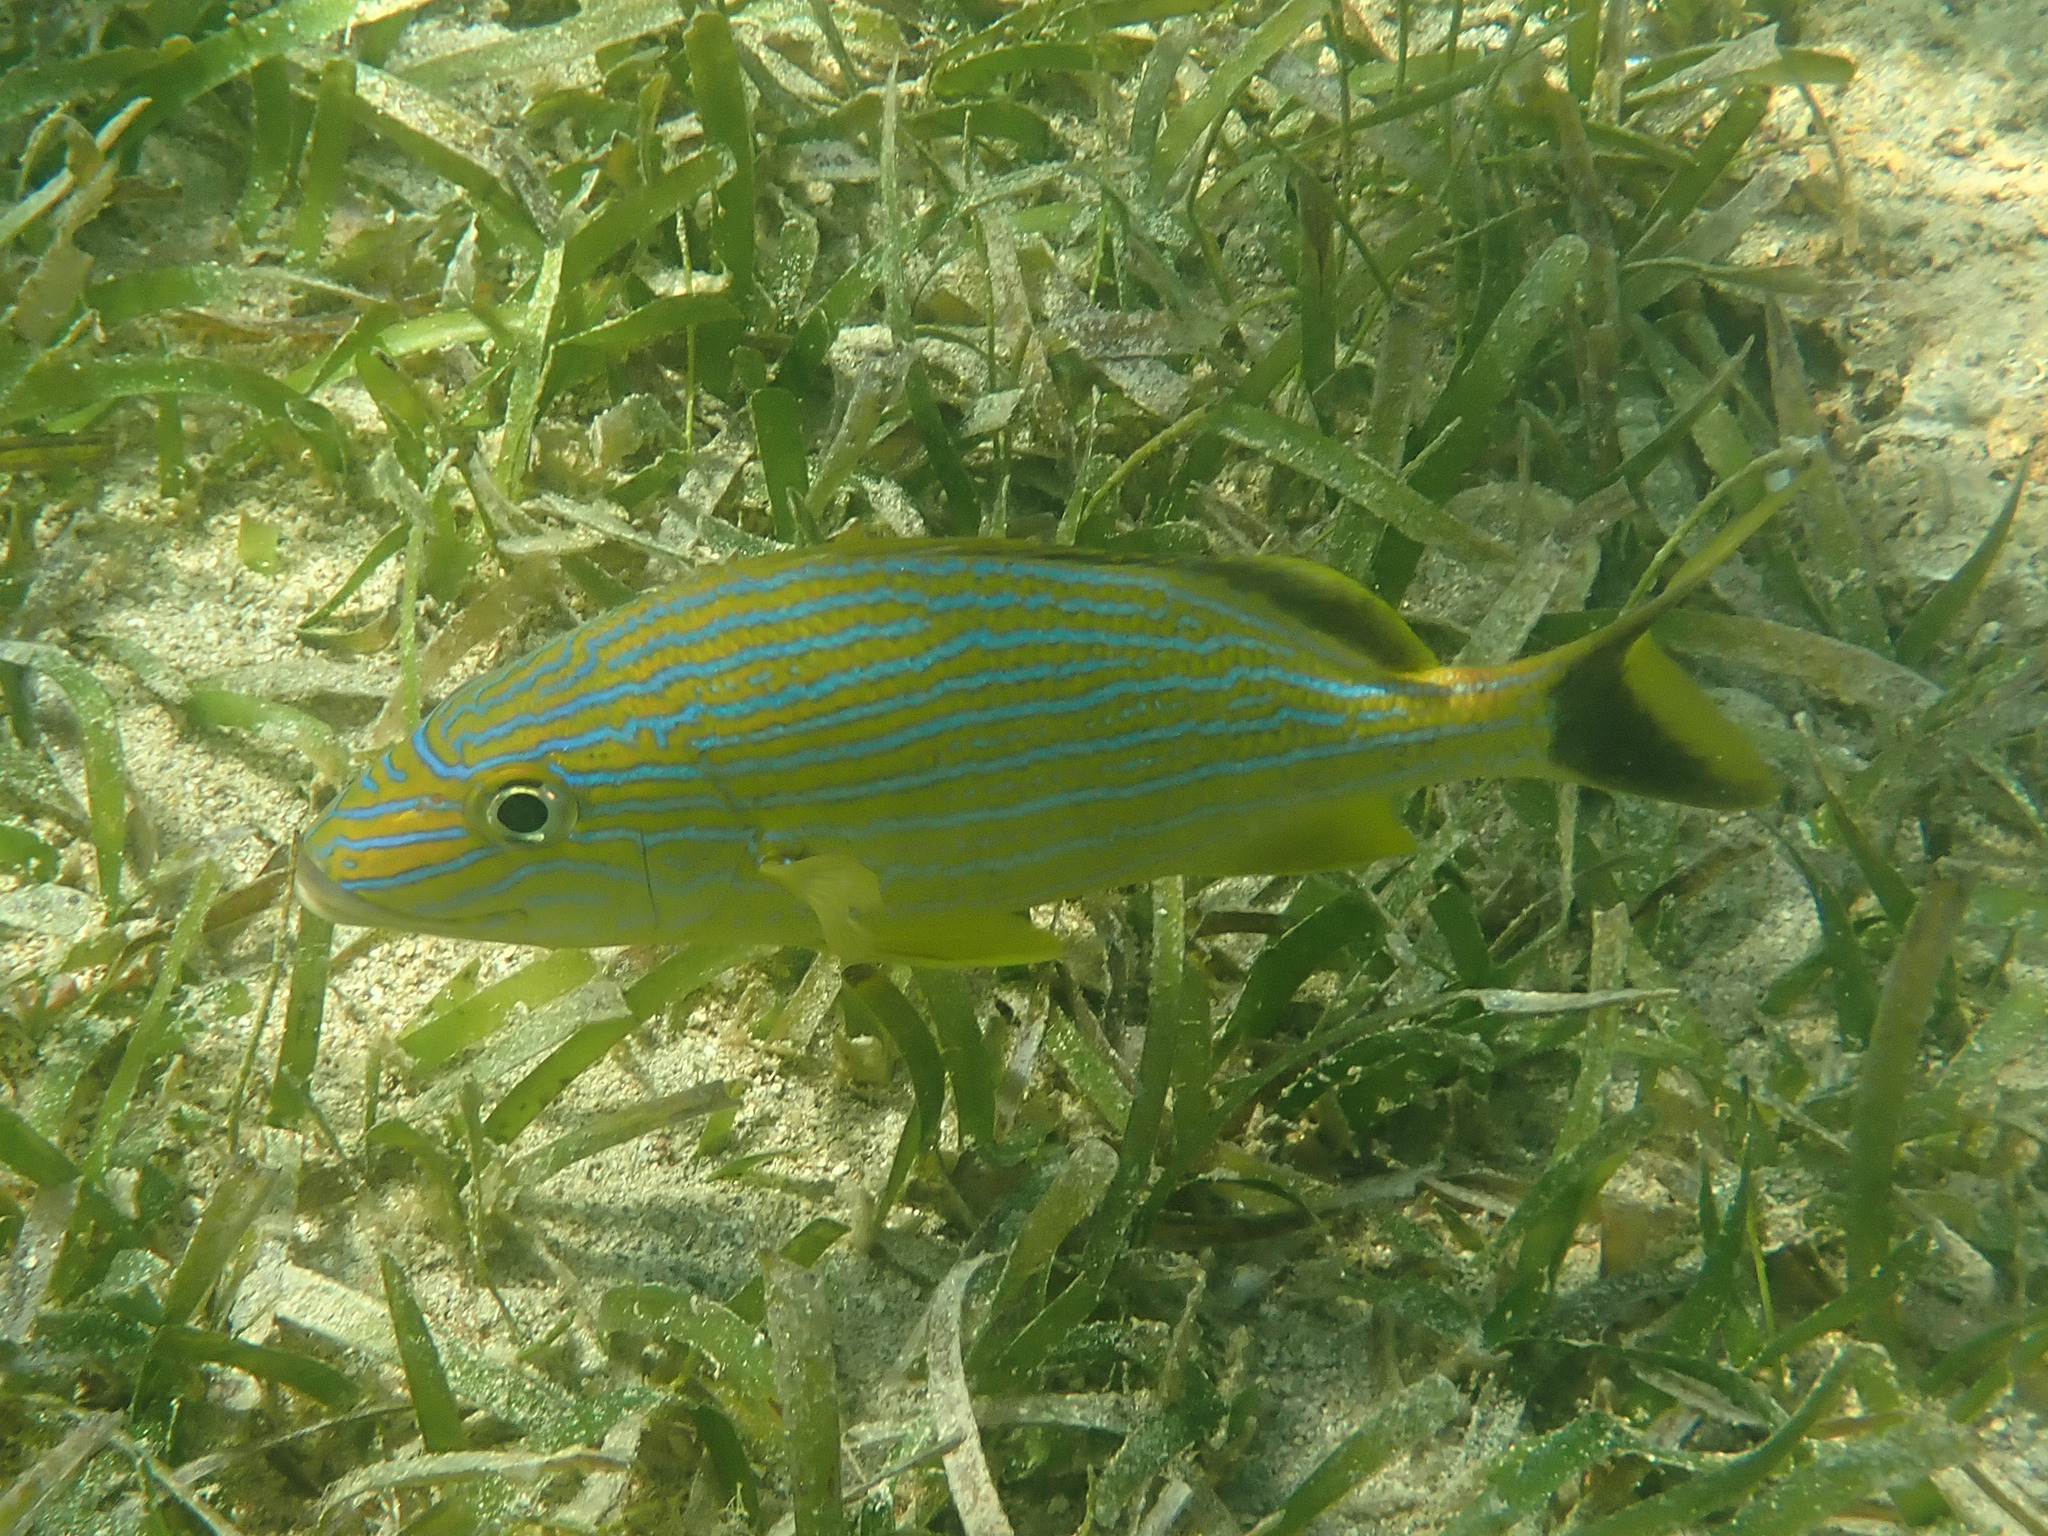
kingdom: Animalia
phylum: Chordata
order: Perciformes
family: Haemulidae
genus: Haemulon
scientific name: Haemulon sciurus
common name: Bluestriped grunt
